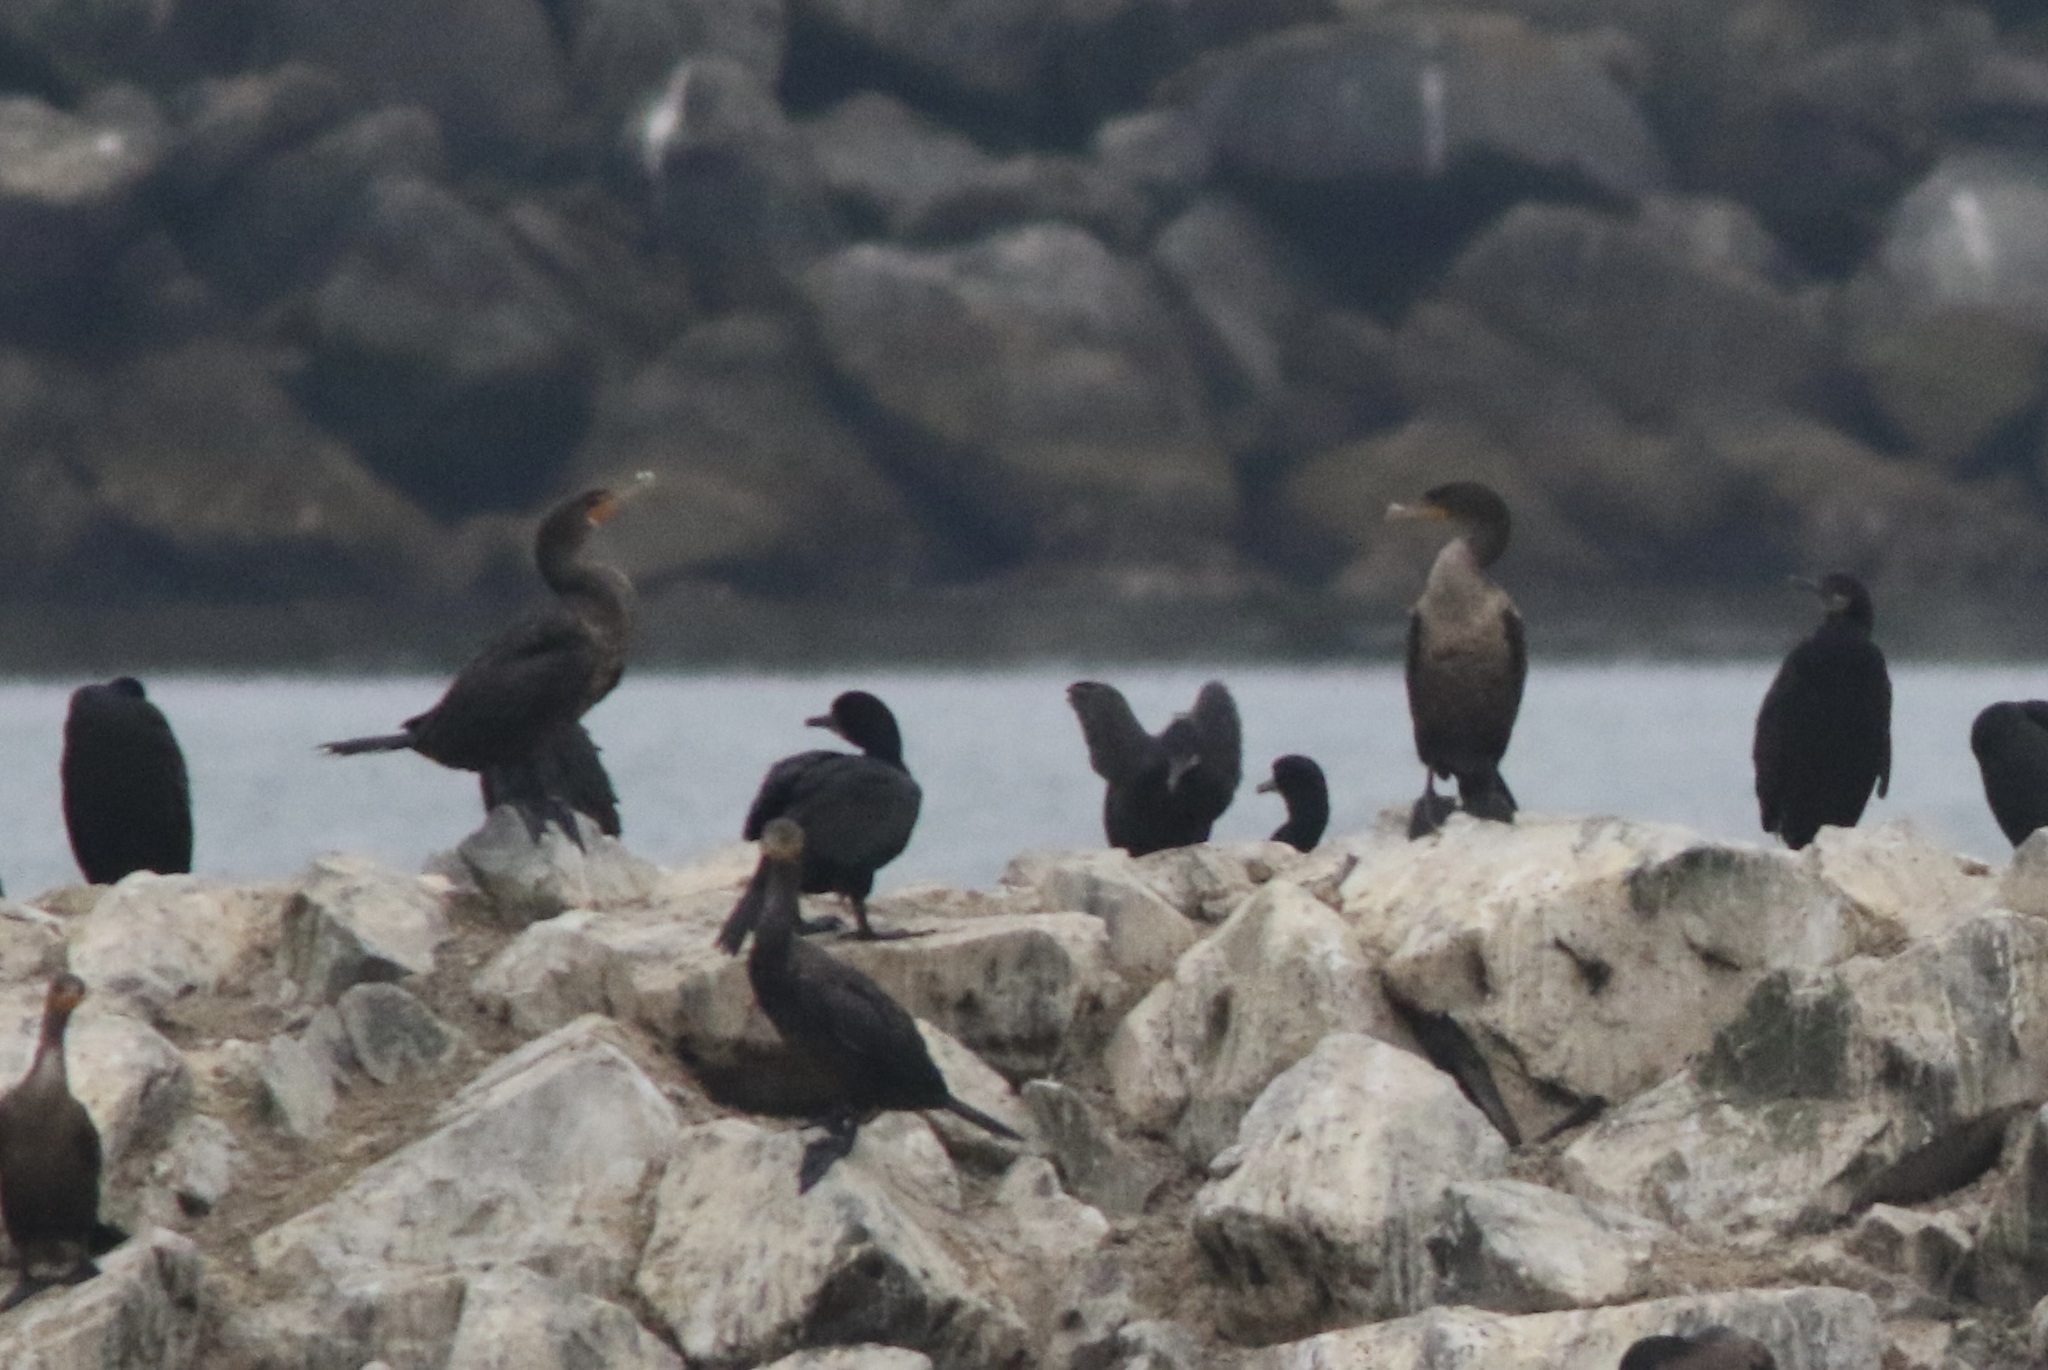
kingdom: Animalia
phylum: Chordata
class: Aves
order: Suliformes
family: Phalacrocoracidae
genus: Phalacrocorax
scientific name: Phalacrocorax auritus
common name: Double-crested cormorant
